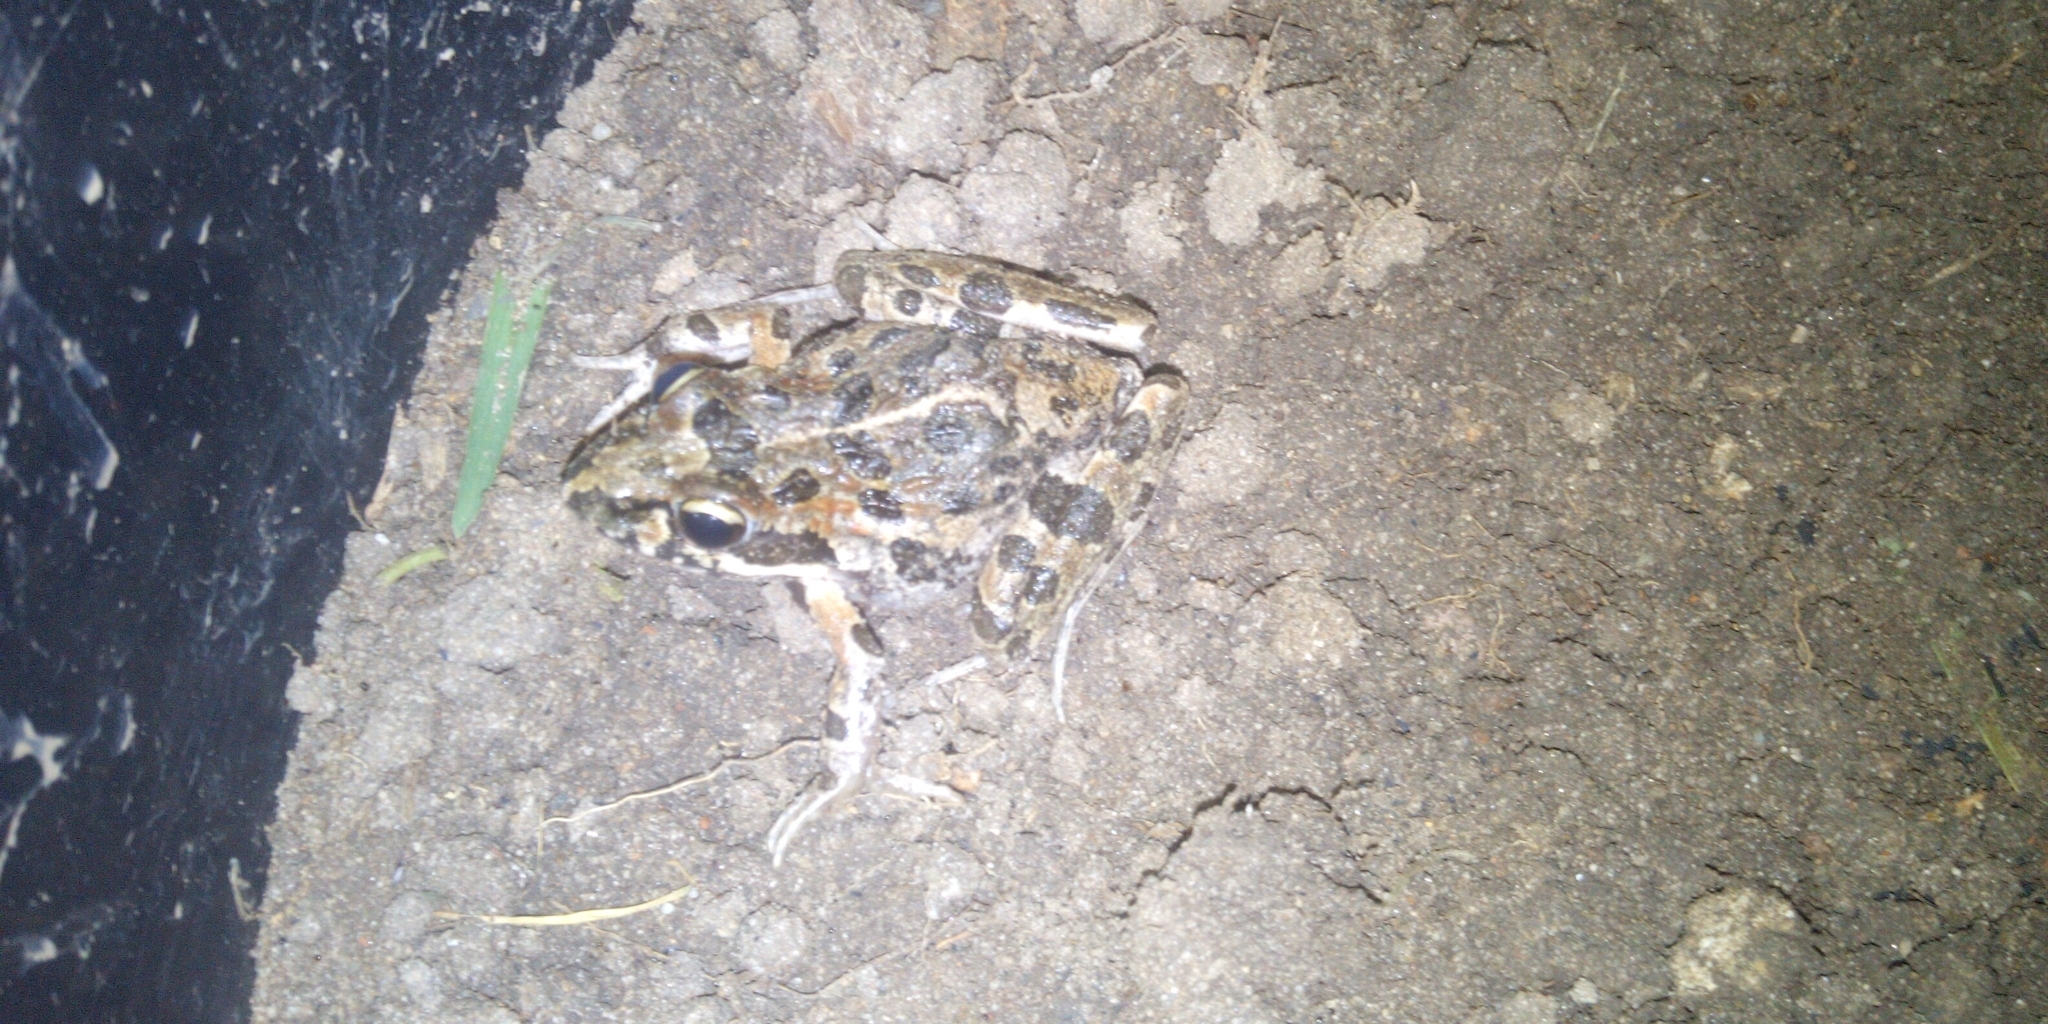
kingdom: Animalia
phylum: Chordata
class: Amphibia
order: Anura
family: Pyxicephalidae
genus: Strongylopus
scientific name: Strongylopus grayii
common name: Gray's stream frog
